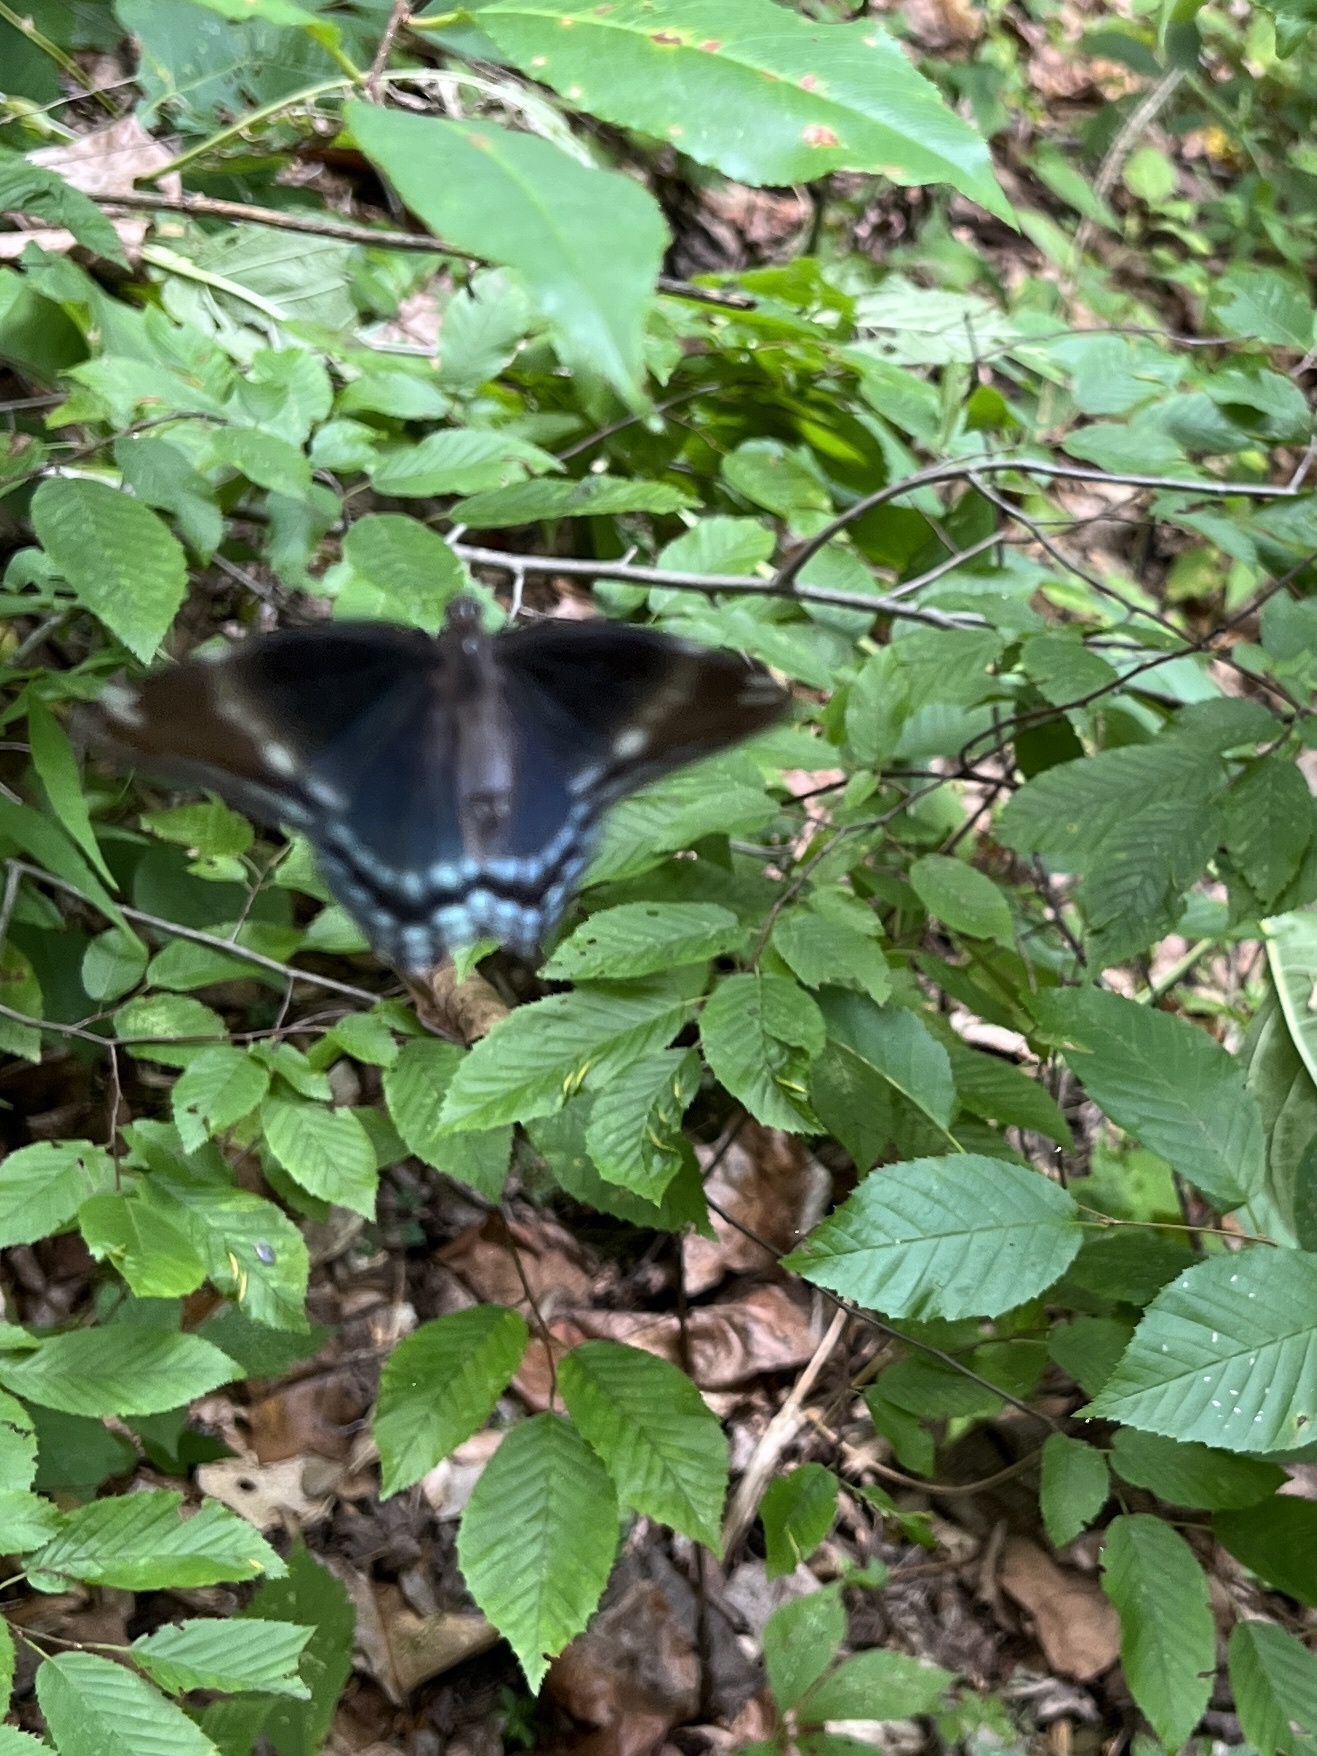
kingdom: Animalia
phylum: Arthropoda
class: Insecta
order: Lepidoptera
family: Nymphalidae
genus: Limenitis
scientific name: Limenitis arthemis
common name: Red-spotted admiral
